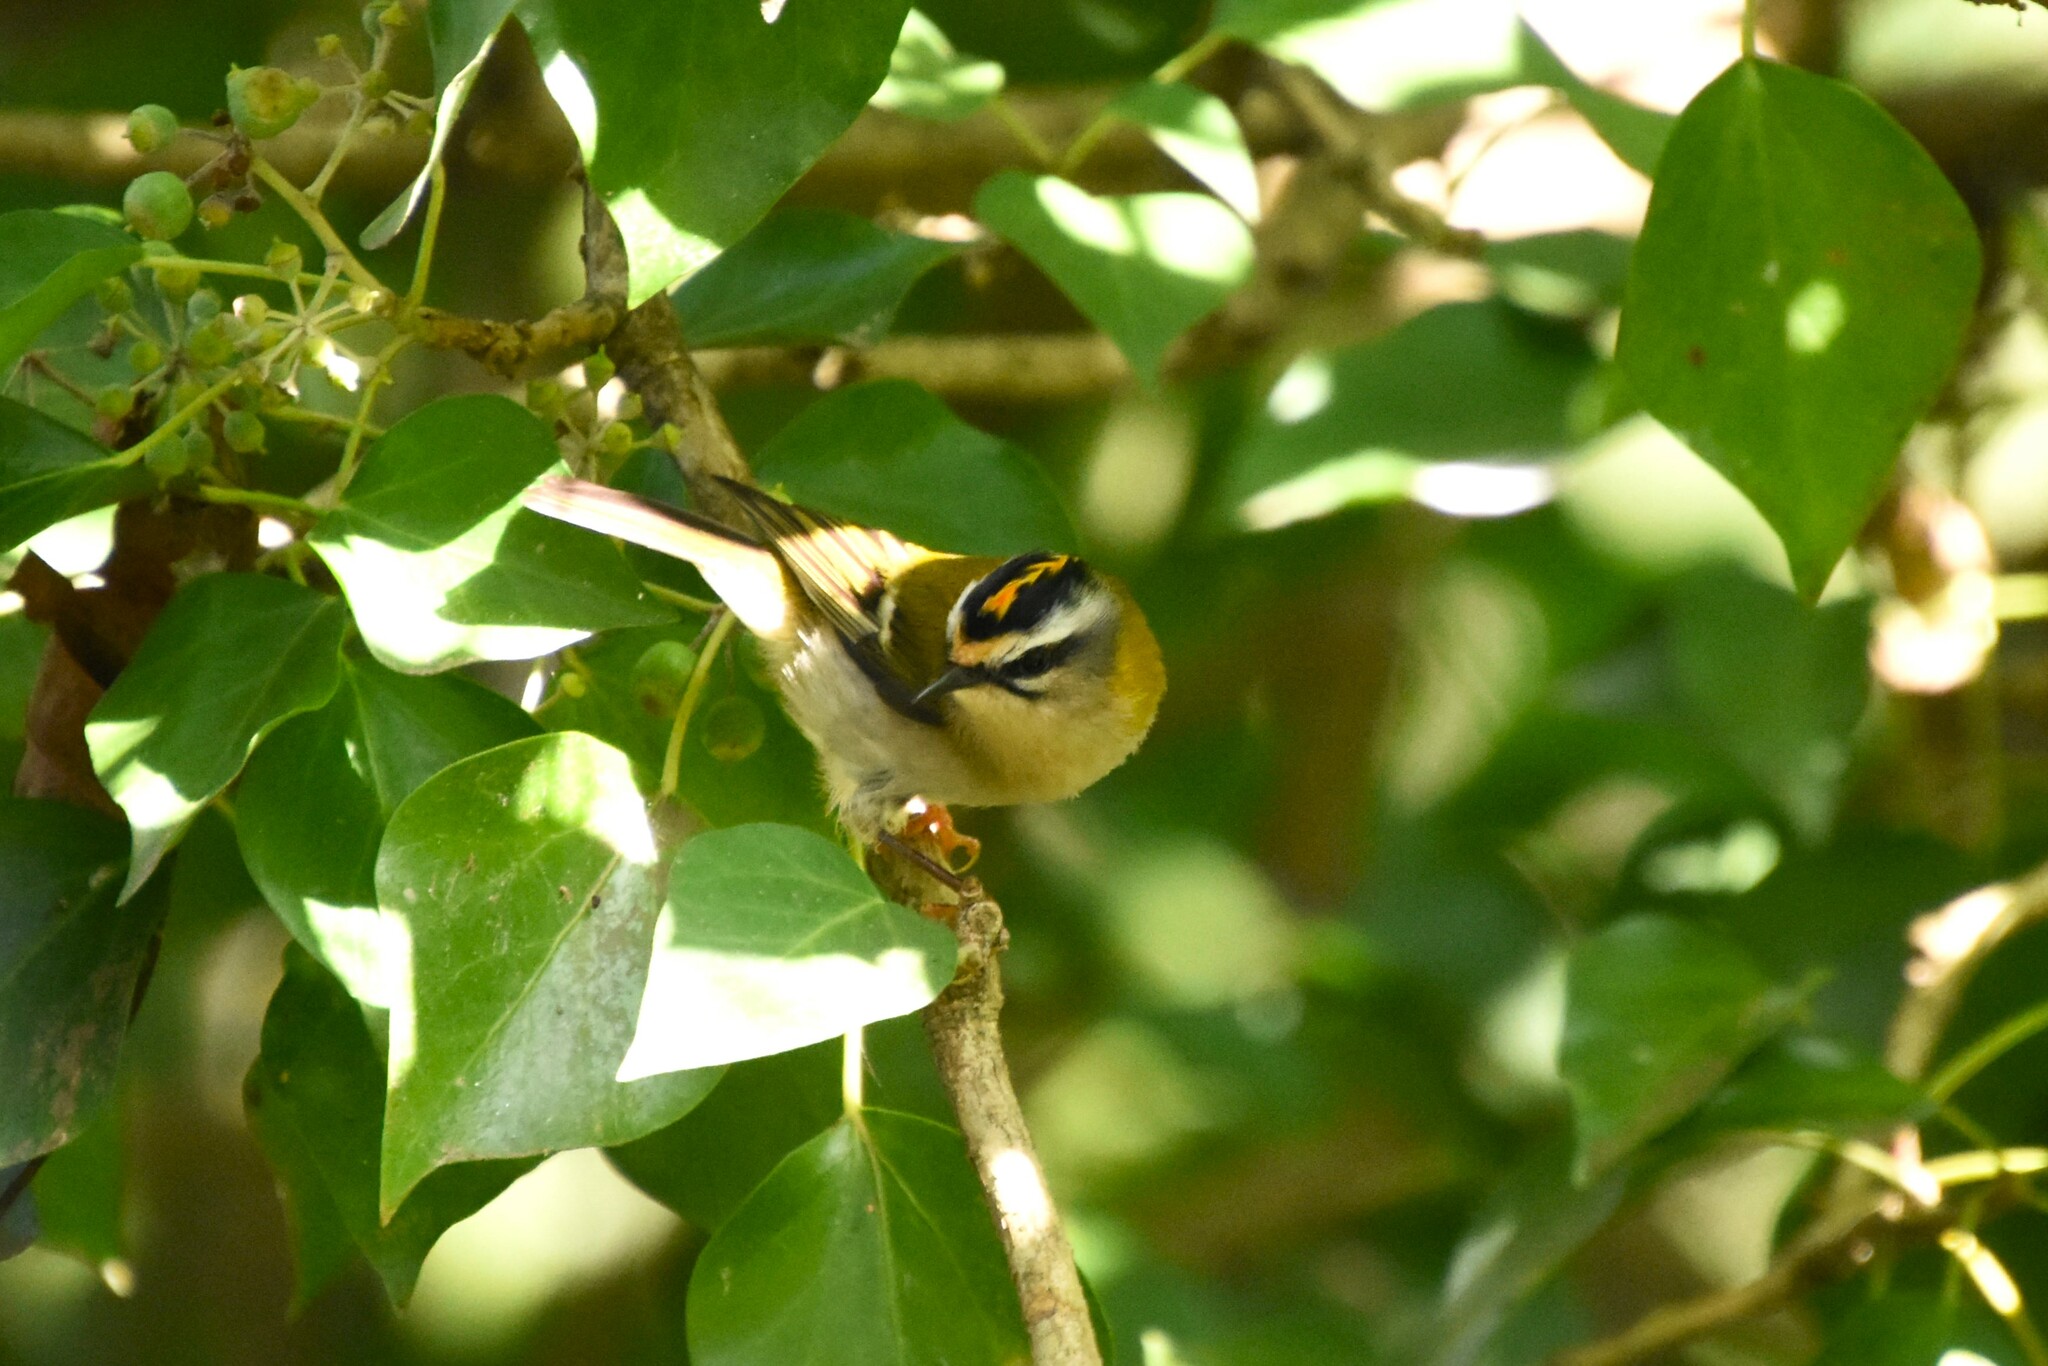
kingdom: Animalia
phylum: Chordata
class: Aves
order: Passeriformes
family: Regulidae
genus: Regulus
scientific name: Regulus ignicapilla
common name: Firecrest
